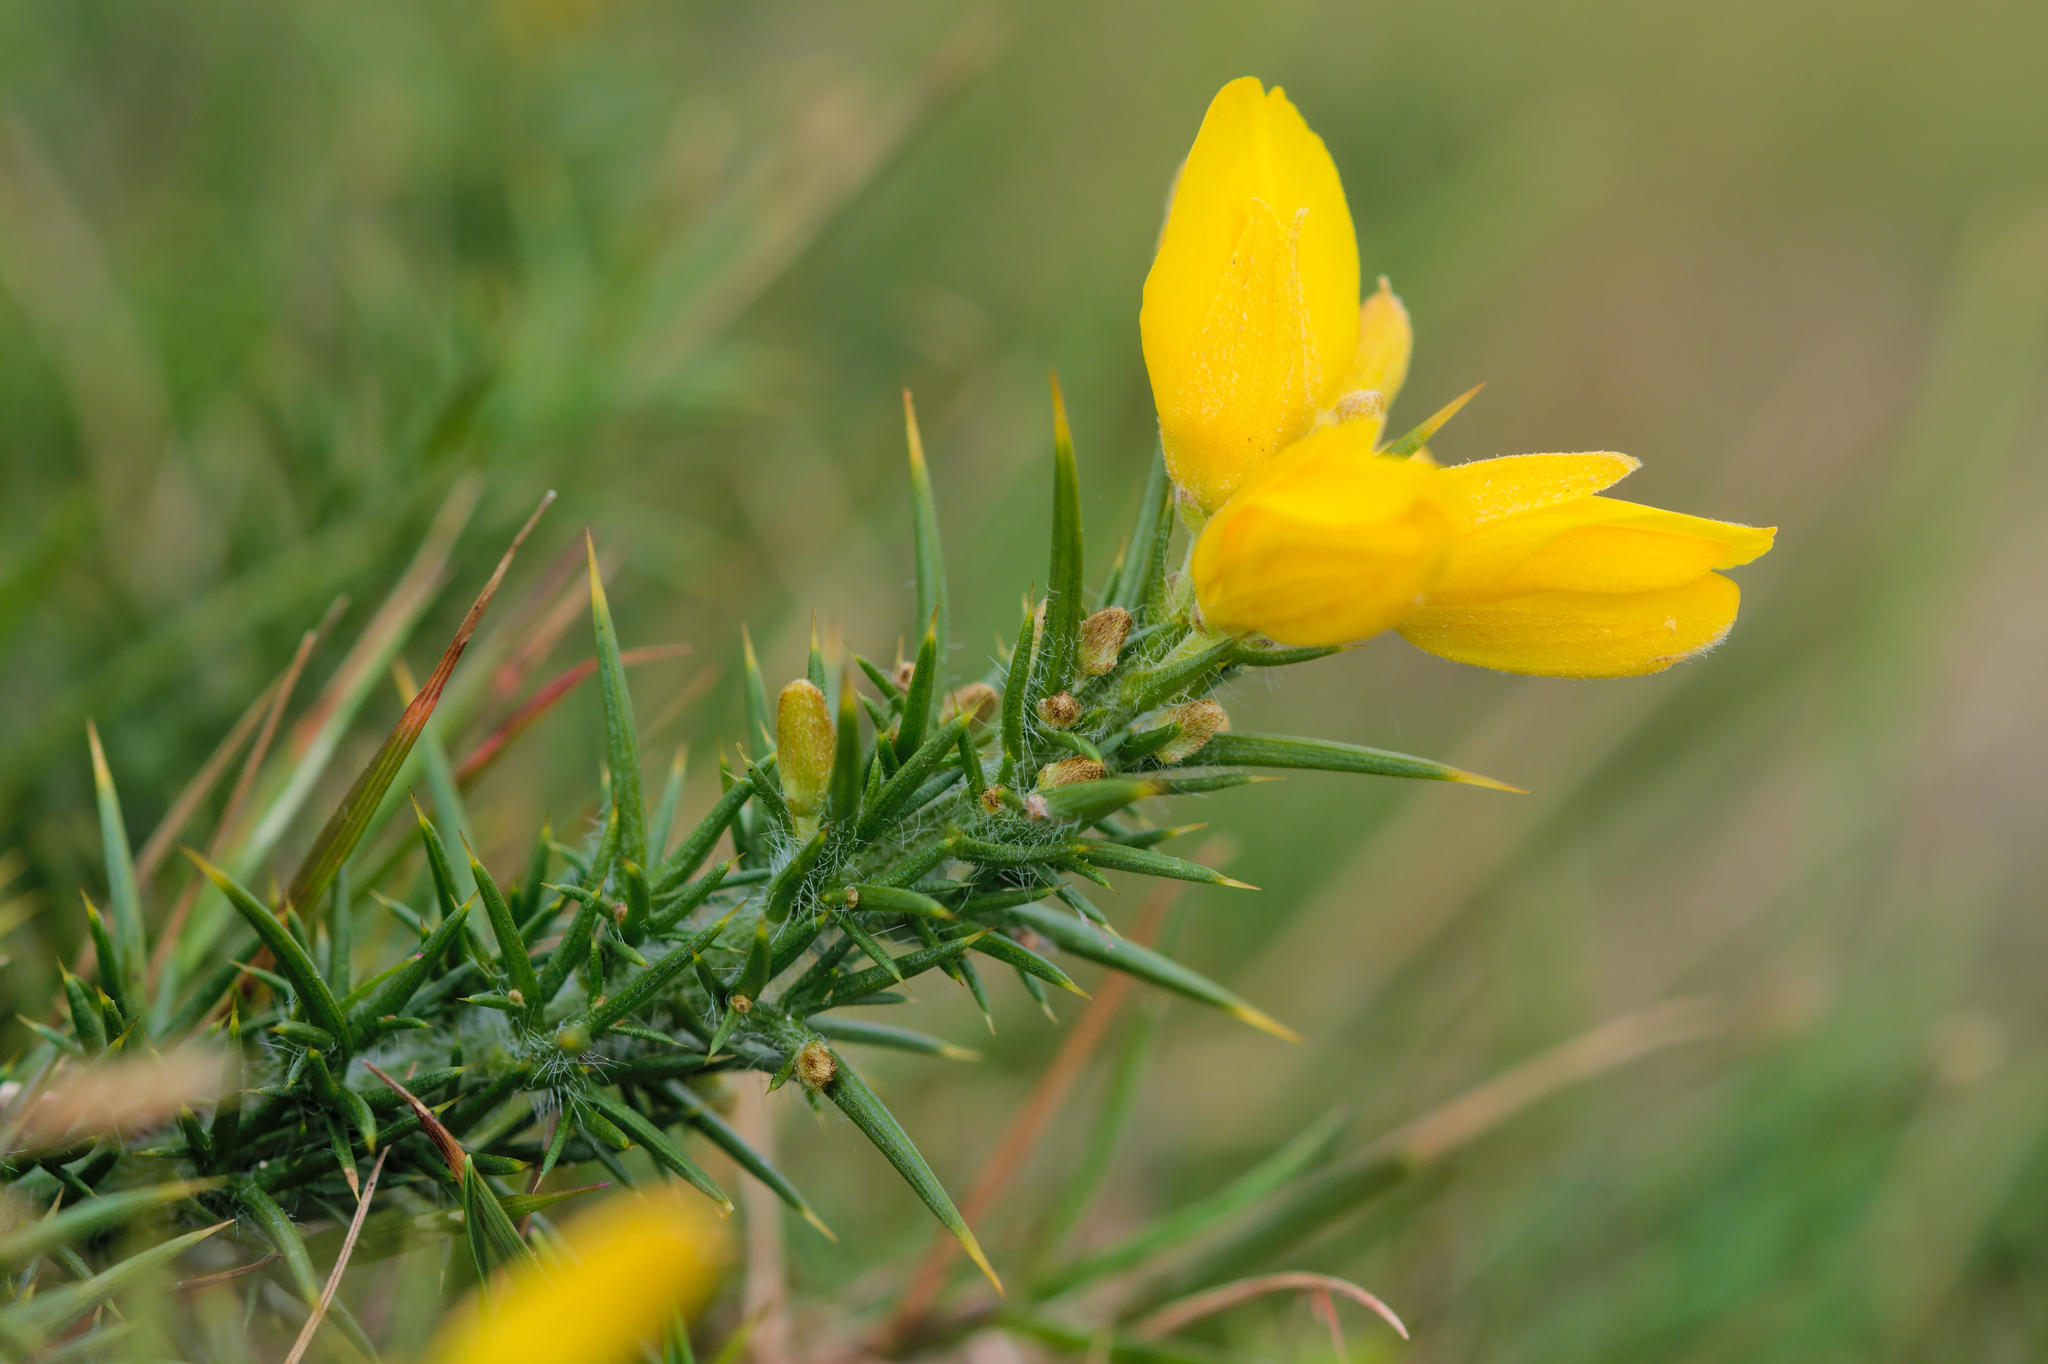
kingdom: Plantae
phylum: Tracheophyta
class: Magnoliopsida
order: Fabales
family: Fabaceae
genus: Ulex
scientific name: Ulex gallii
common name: Western gorse
